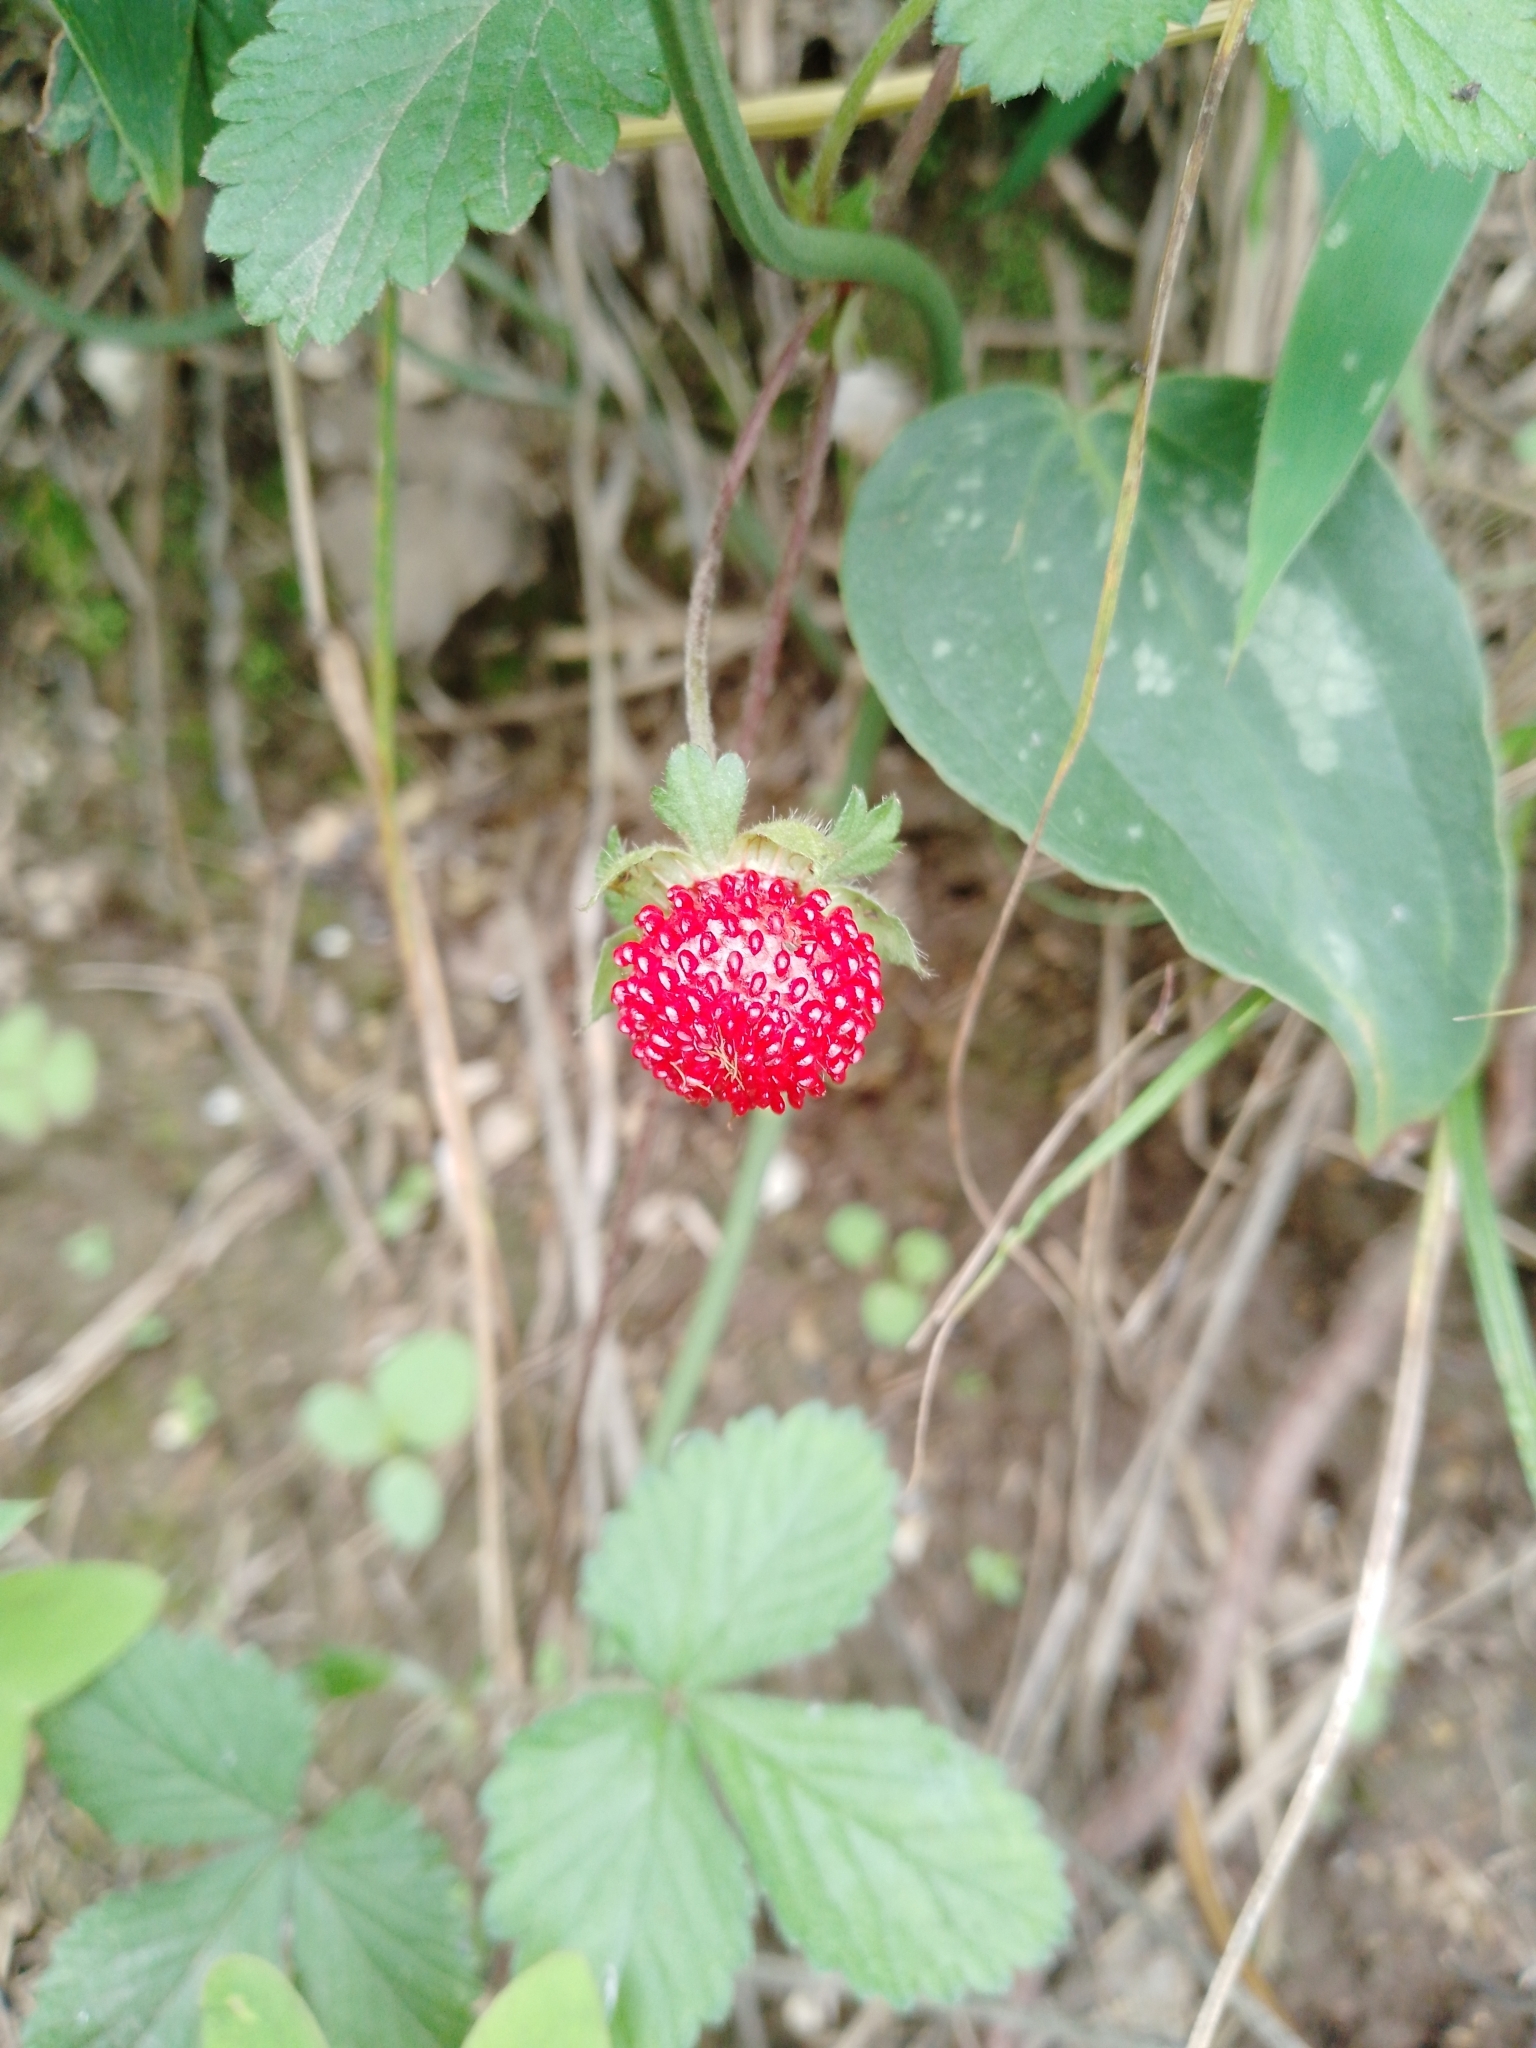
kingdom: Plantae
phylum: Tracheophyta
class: Magnoliopsida
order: Rosales
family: Rosaceae
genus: Potentilla
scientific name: Potentilla indica
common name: Yellow-flowered strawberry
